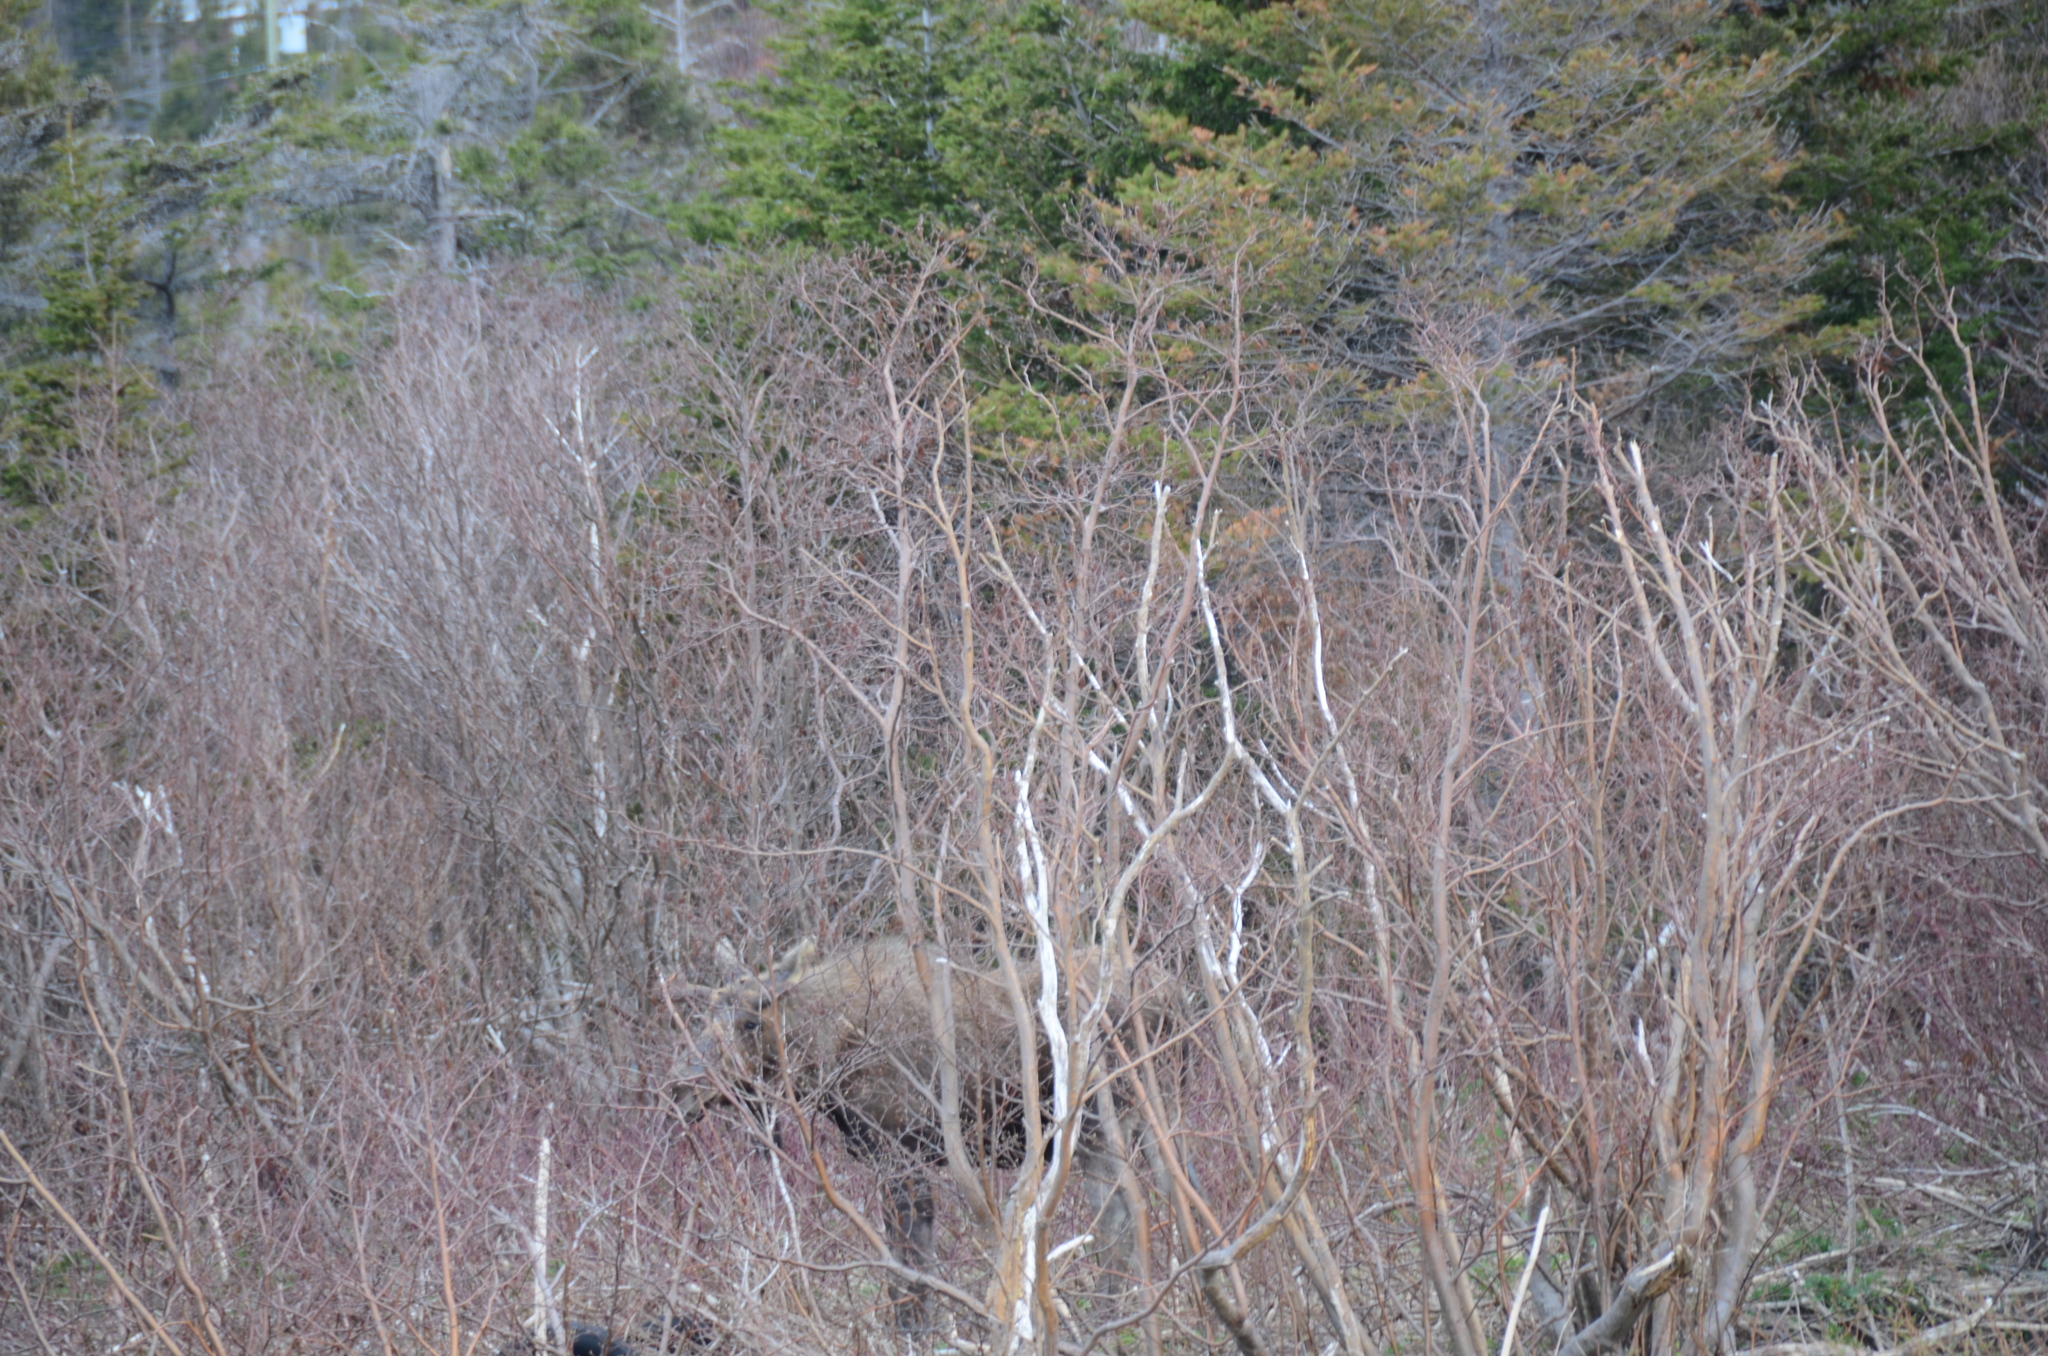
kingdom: Animalia
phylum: Chordata
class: Mammalia
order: Artiodactyla
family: Cervidae
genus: Alces
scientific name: Alces alces
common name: Moose
